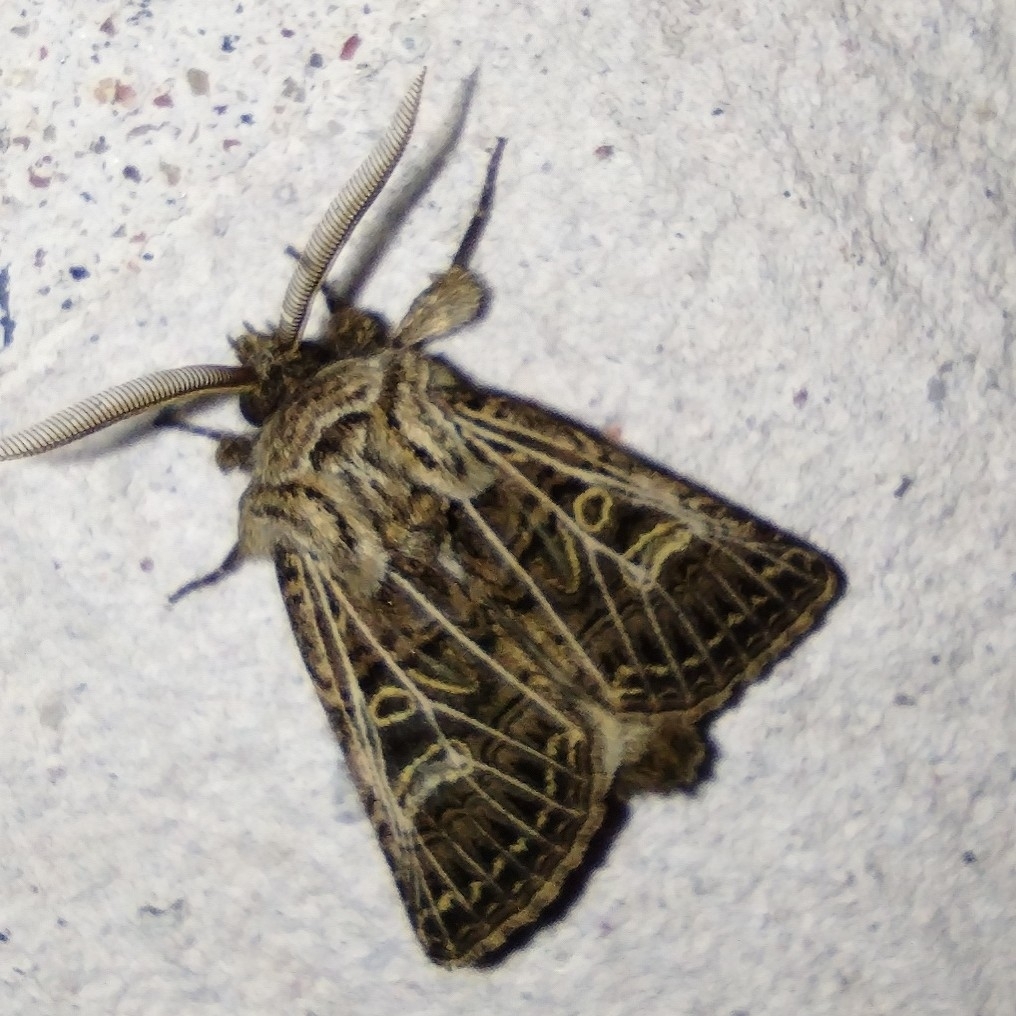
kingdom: Animalia
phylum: Arthropoda
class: Insecta
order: Lepidoptera
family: Noctuidae
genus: Tholera
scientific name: Tholera decimalis
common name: Feathered gothic
